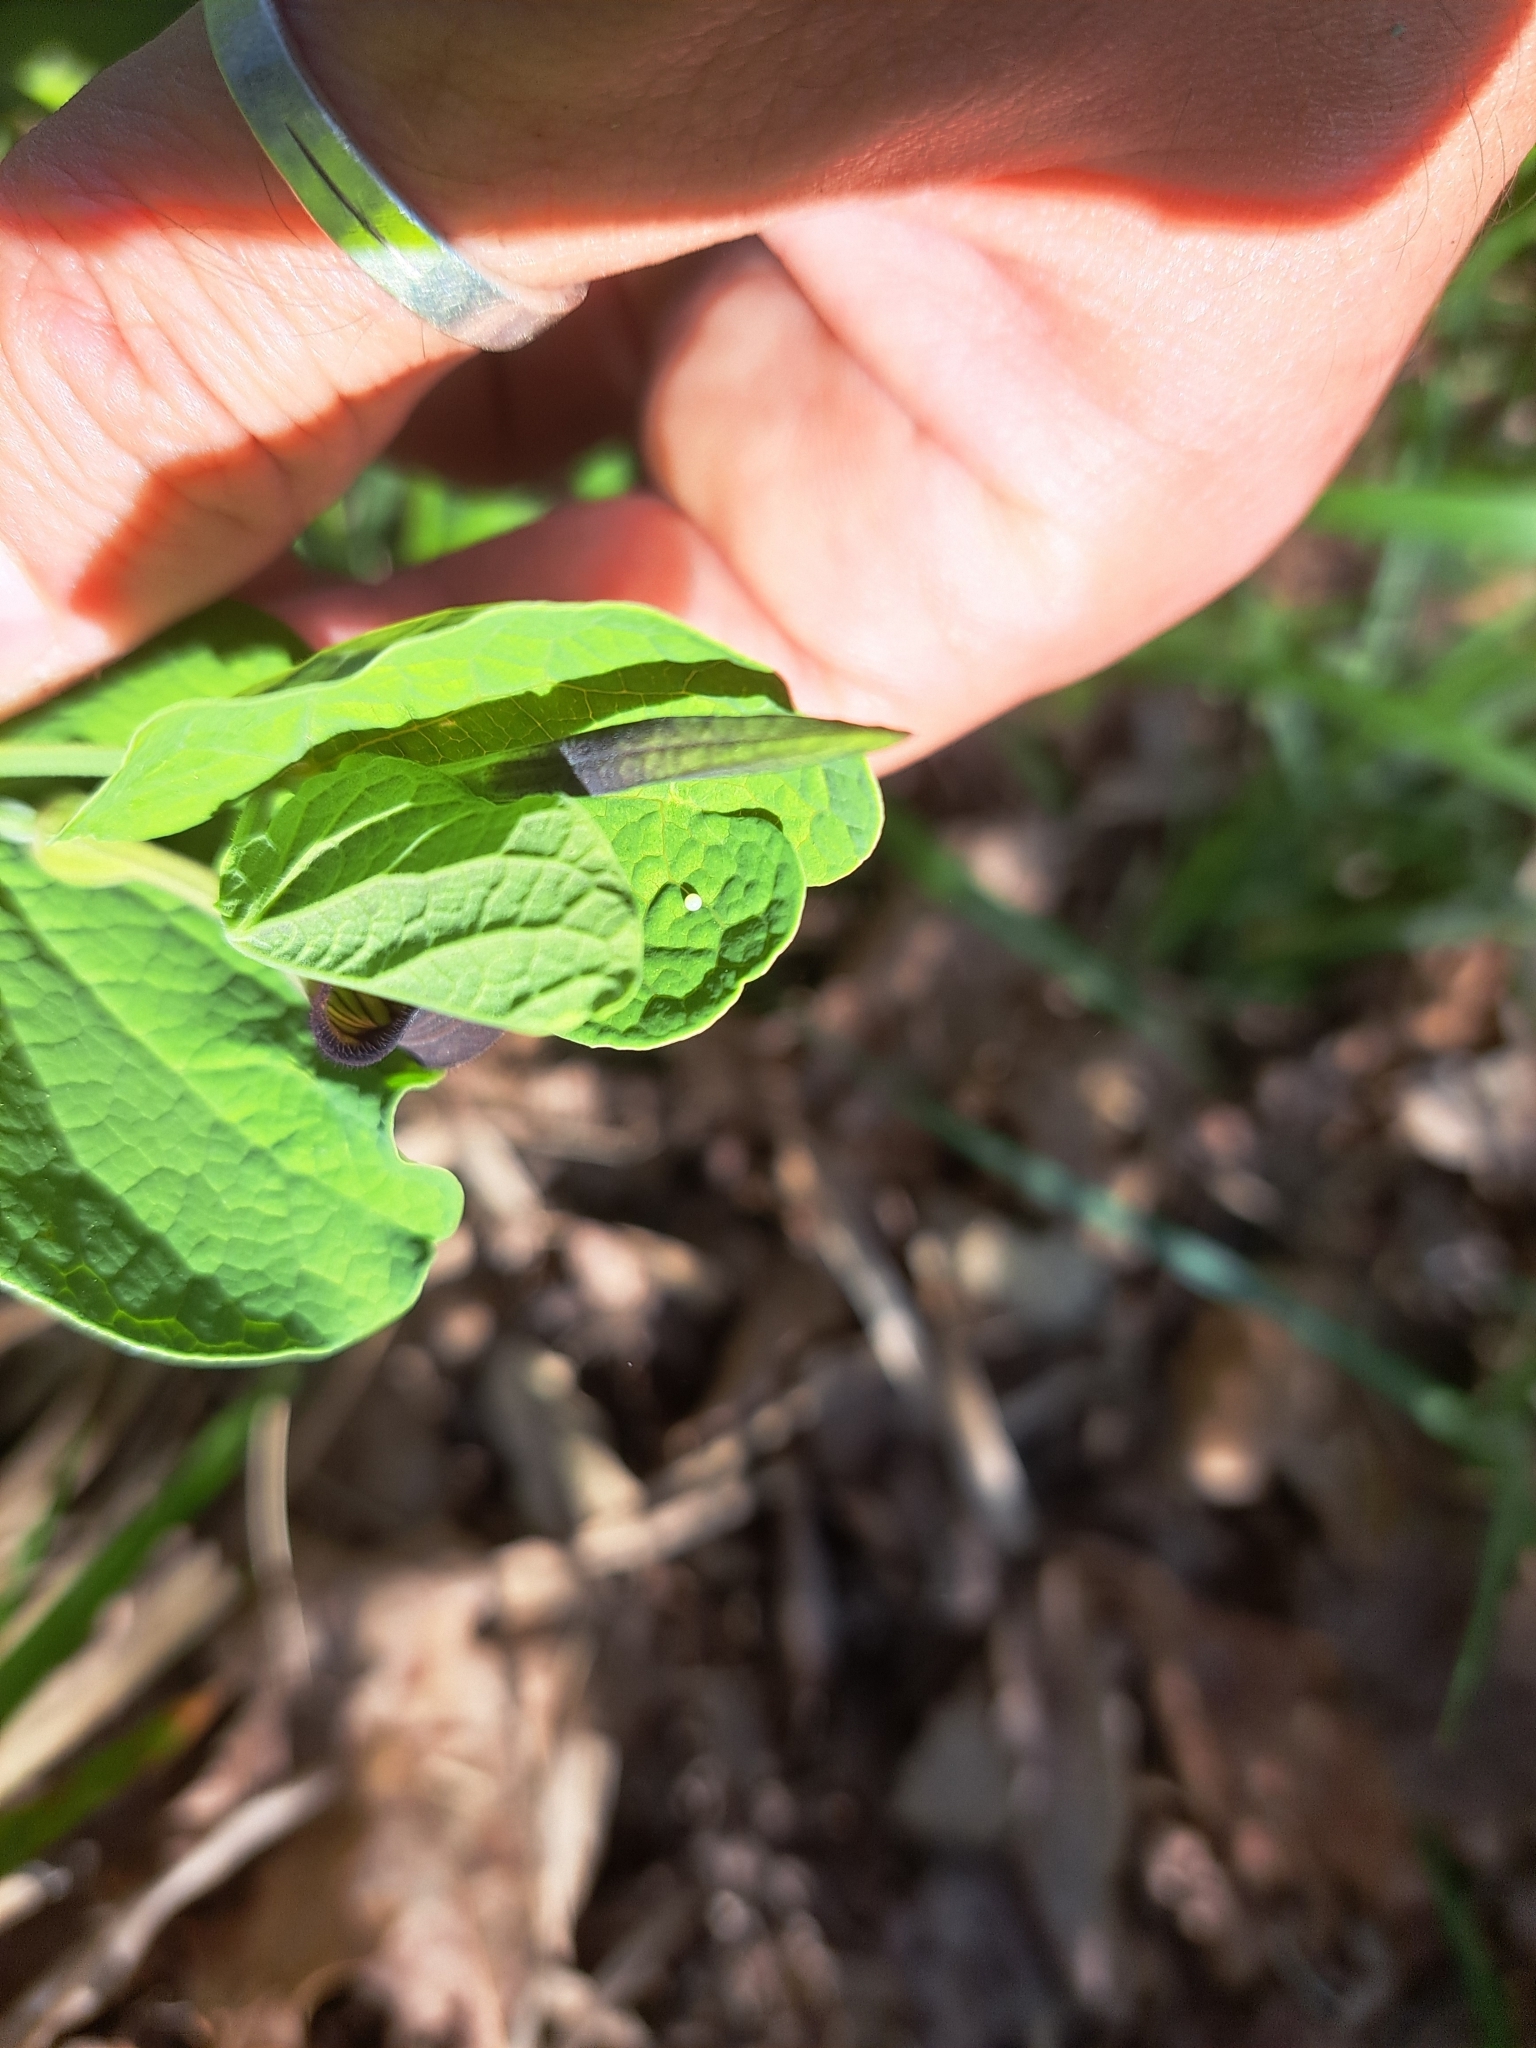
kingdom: Animalia
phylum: Arthropoda
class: Insecta
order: Lepidoptera
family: Papilionidae
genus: Zerynthia
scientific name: Zerynthia cassandra
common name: Italian festoon
